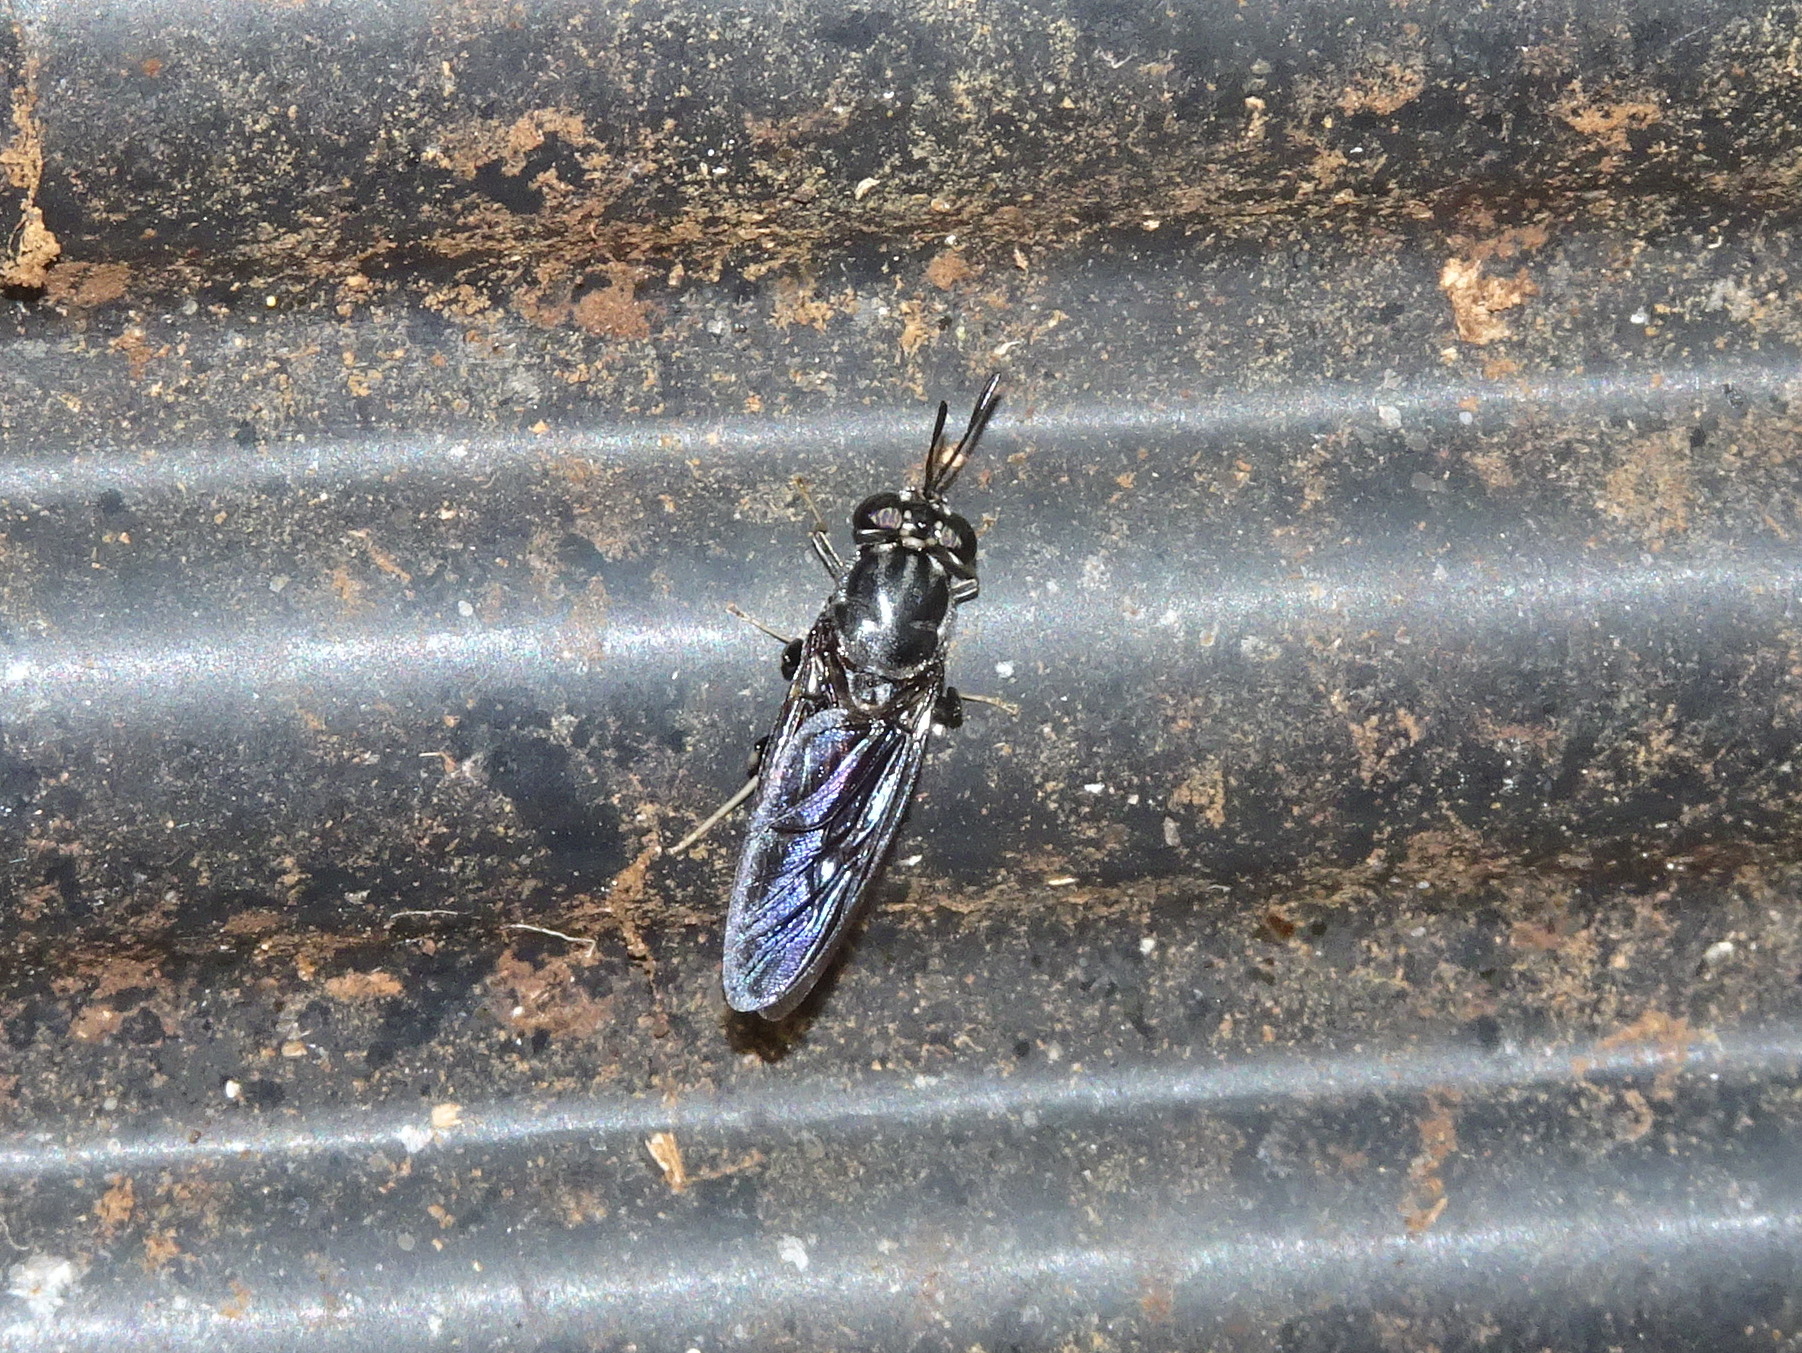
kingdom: Animalia
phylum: Arthropoda
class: Insecta
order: Diptera
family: Stratiomyidae
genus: Hermetia
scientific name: Hermetia illucens
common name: Black soldier fly
